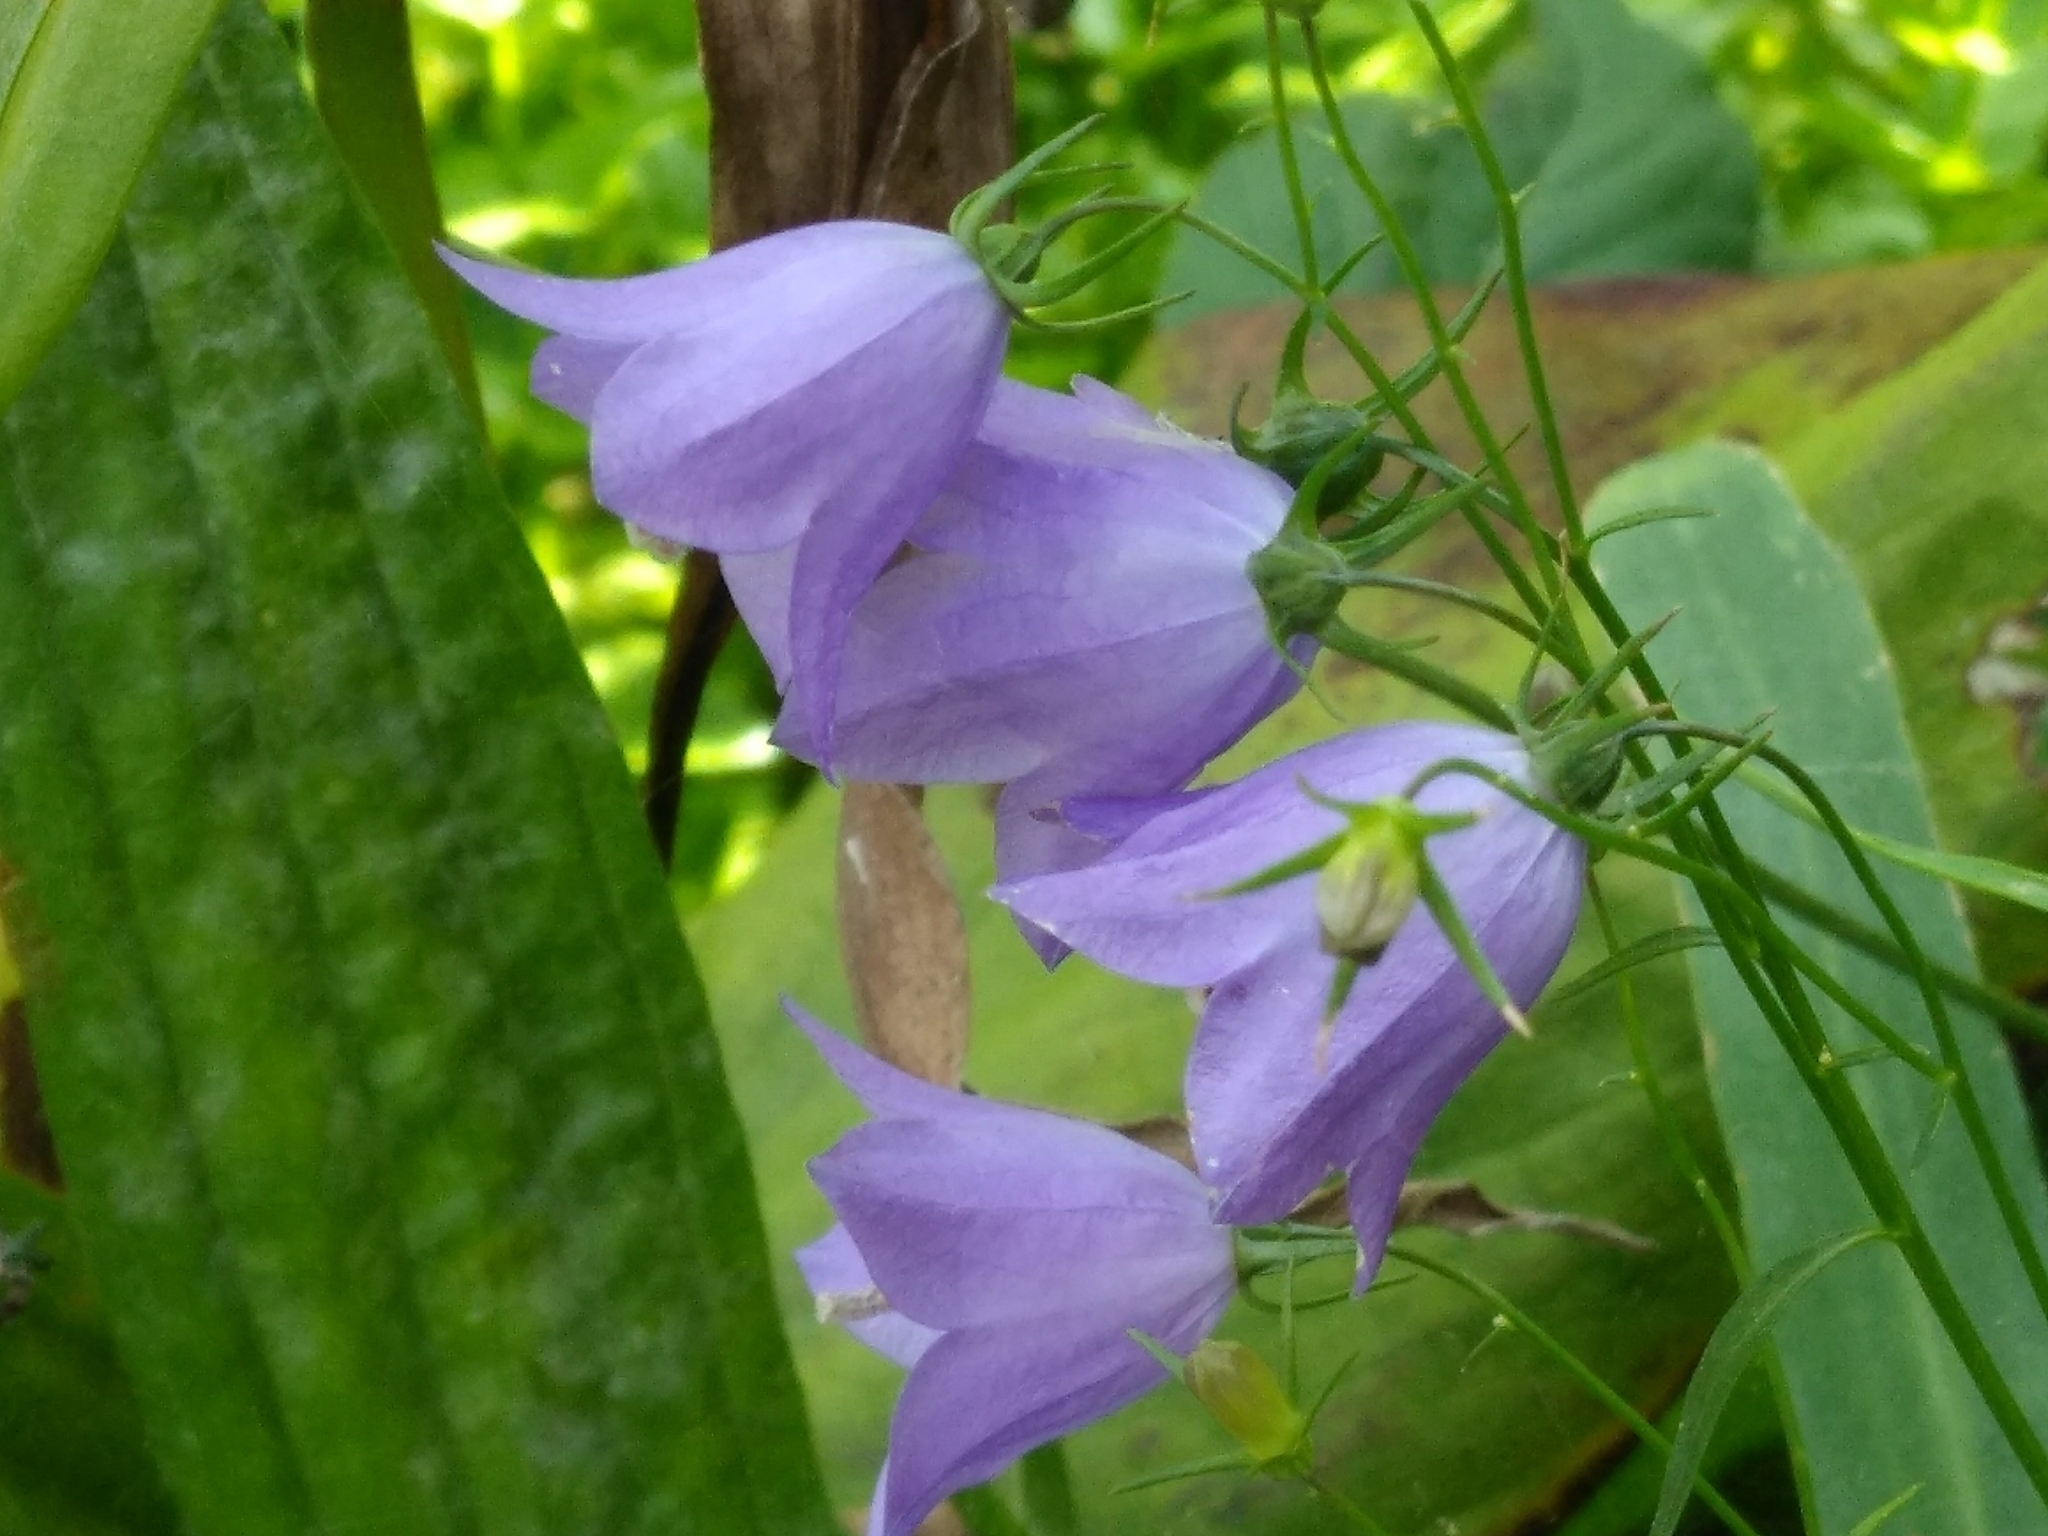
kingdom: Plantae
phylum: Tracheophyta
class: Magnoliopsida
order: Asterales
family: Campanulaceae
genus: Campanula
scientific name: Campanula rotundifolia
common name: Harebell
